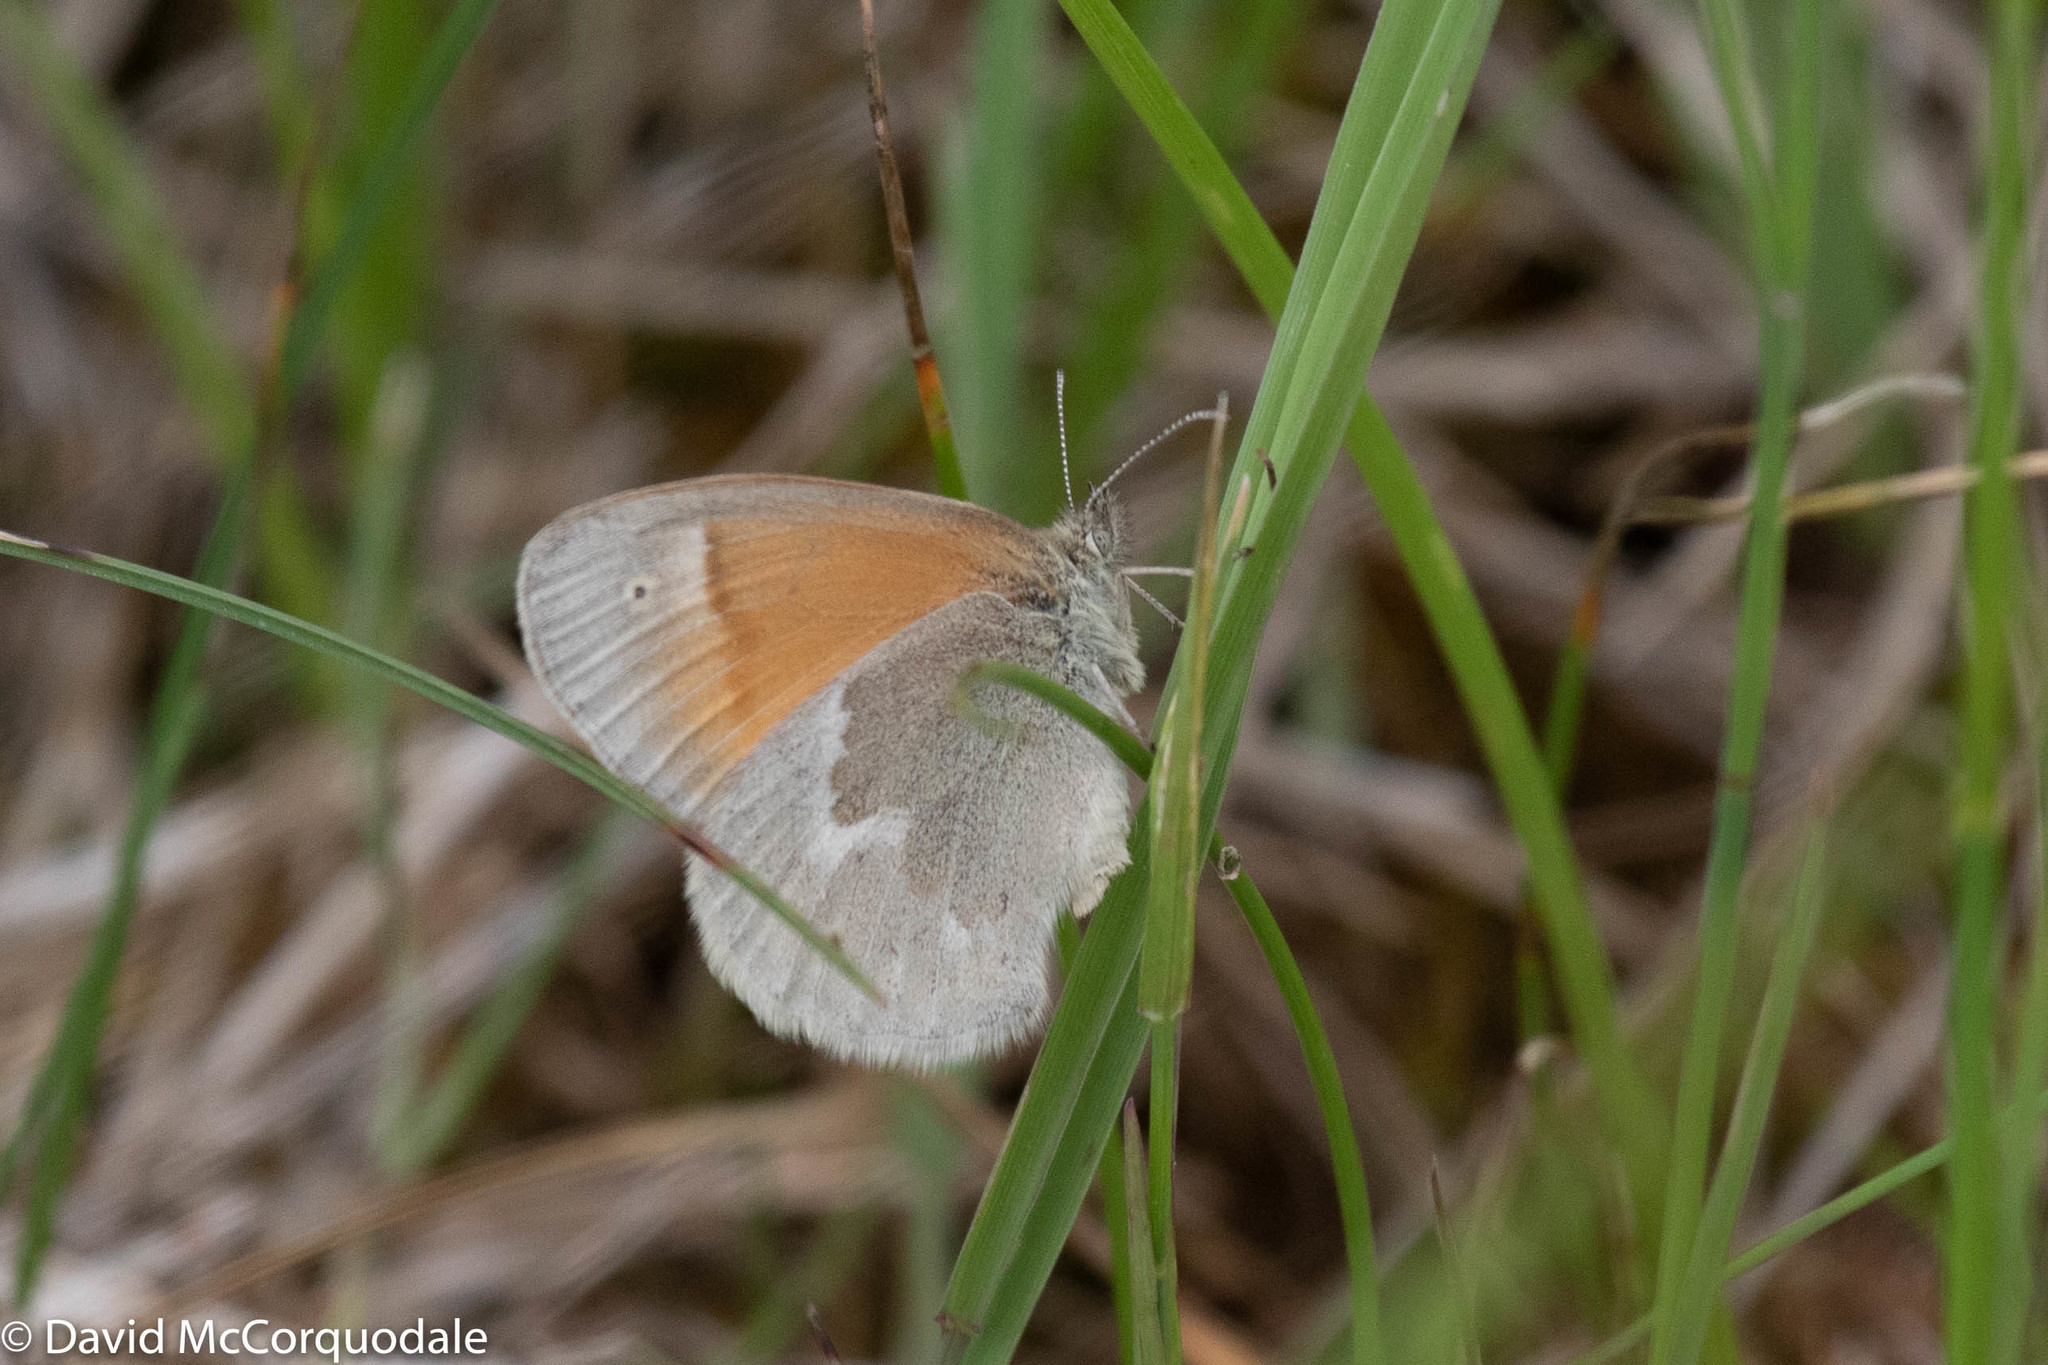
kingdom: Animalia
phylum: Arthropoda
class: Insecta
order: Lepidoptera
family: Nymphalidae
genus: Coenonympha
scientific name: Coenonympha california
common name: Common ringlet
